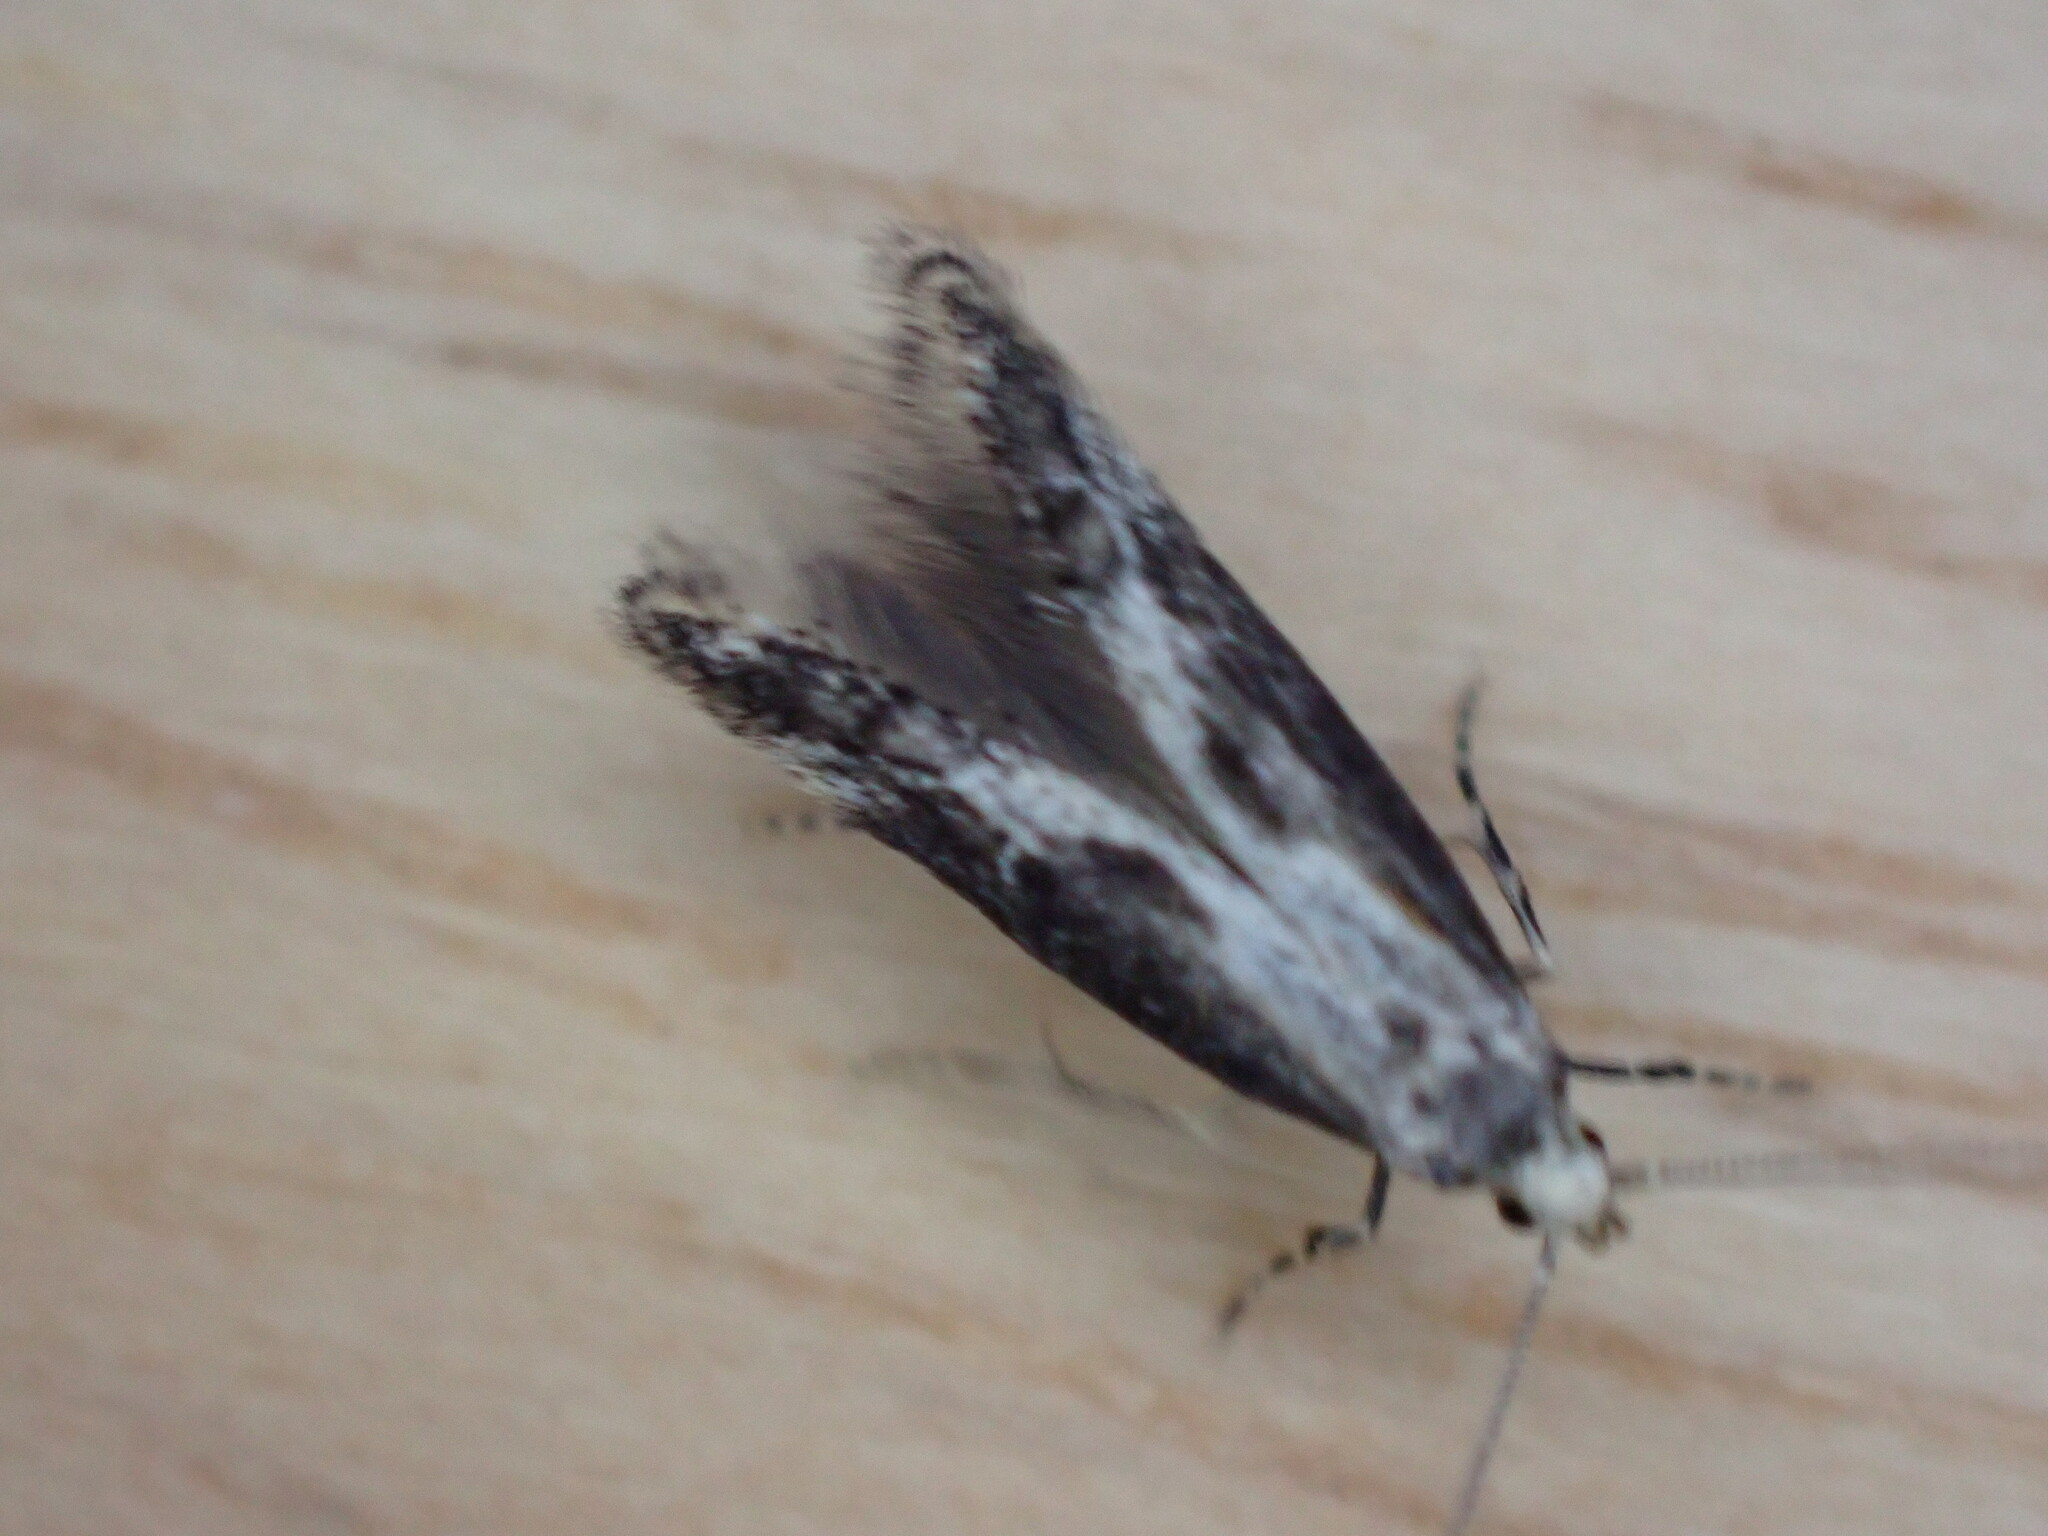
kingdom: Animalia
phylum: Arthropoda
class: Insecta
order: Lepidoptera
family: Elachistidae
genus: Blastodacna
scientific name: Blastodacna hellerella
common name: Hawthorn cosmet
